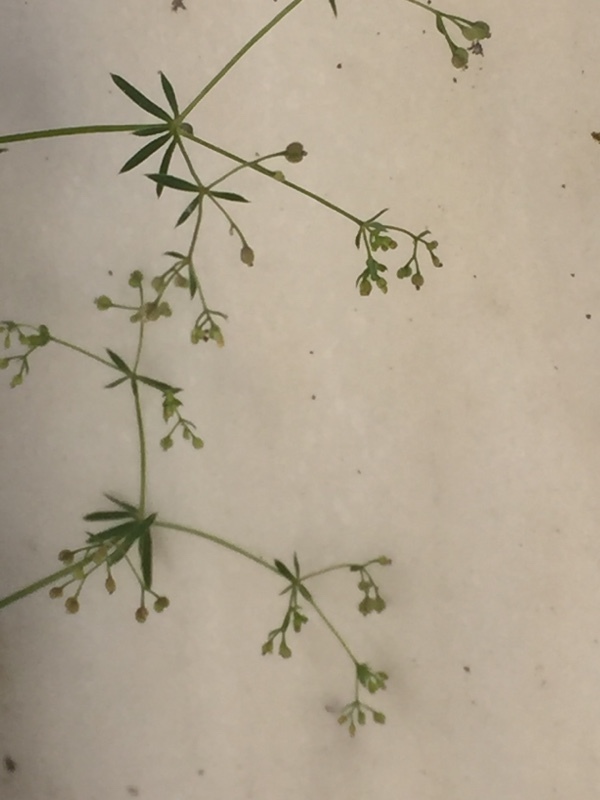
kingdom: Plantae
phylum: Tracheophyta
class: Magnoliopsida
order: Gentianales
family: Rubiaceae
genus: Galium
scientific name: Galium parisiense
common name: Wall bedstraw
